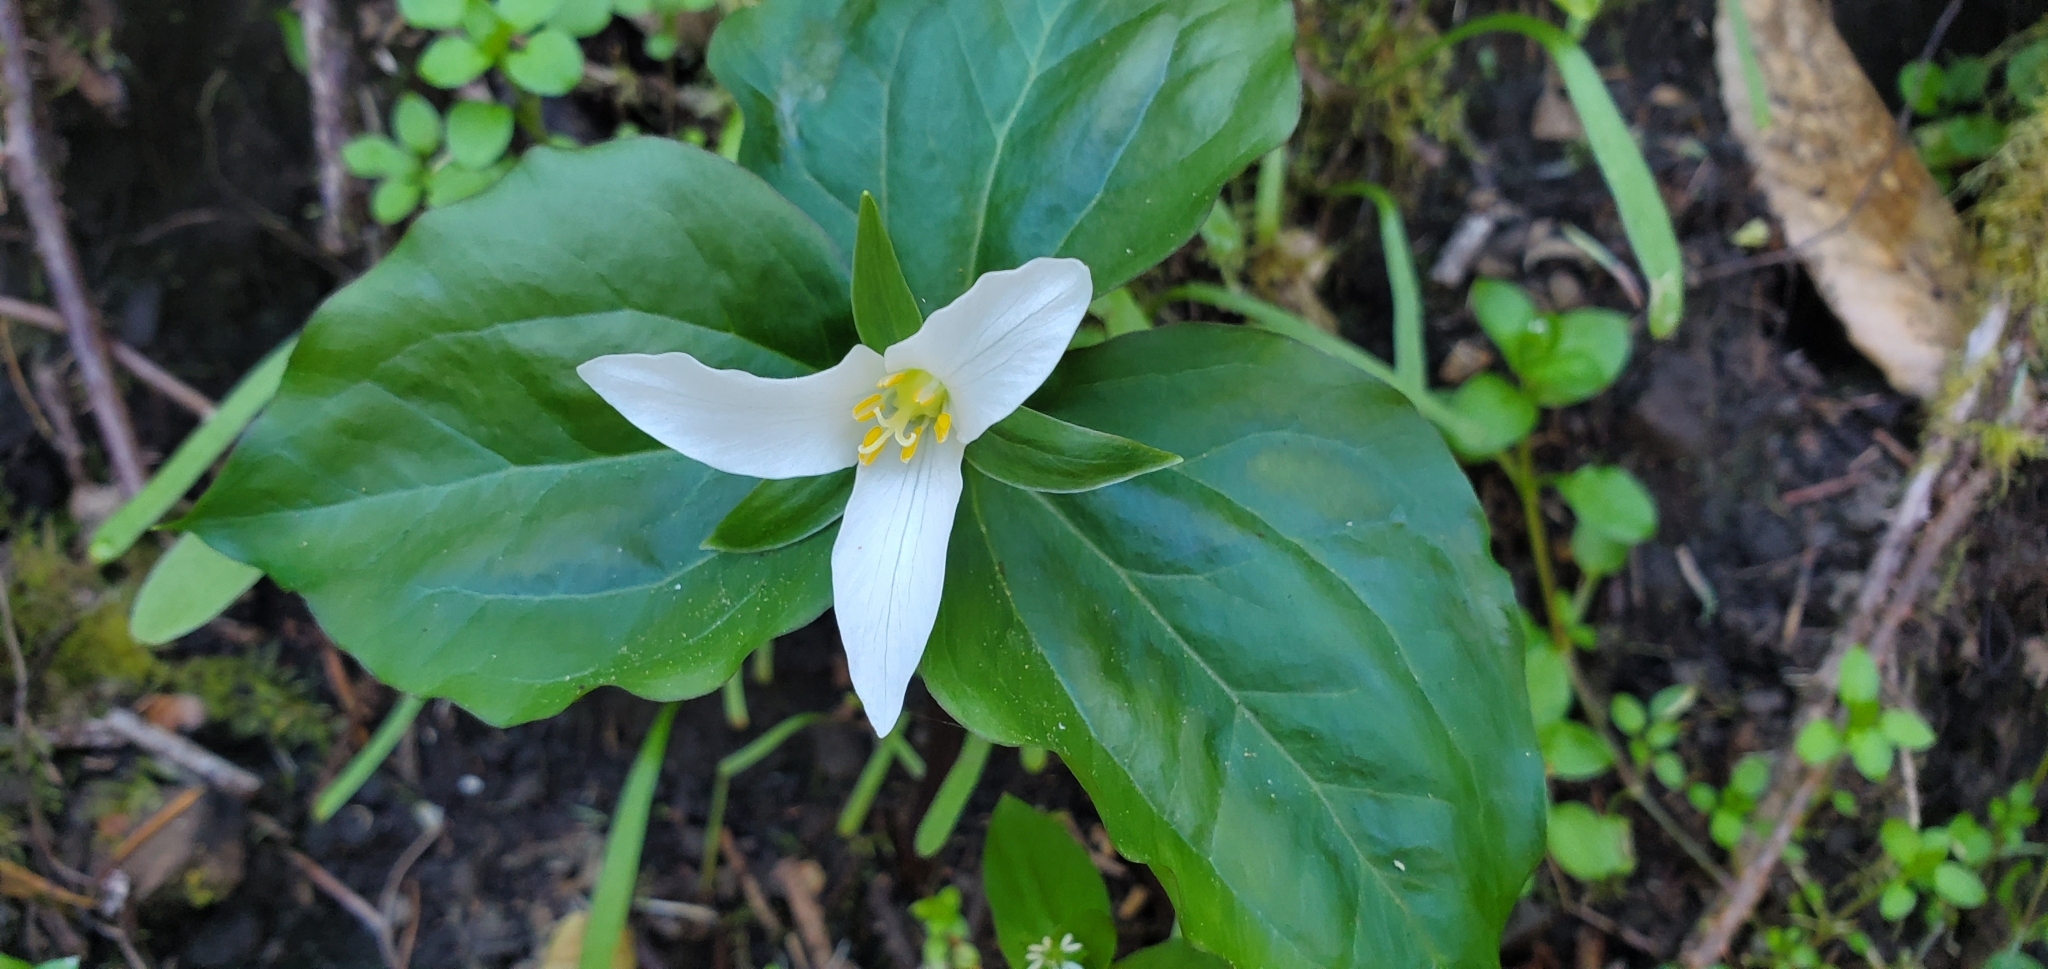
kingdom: Plantae
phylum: Tracheophyta
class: Liliopsida
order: Liliales
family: Melanthiaceae
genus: Trillium
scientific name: Trillium ovatum
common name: Pacific trillium
